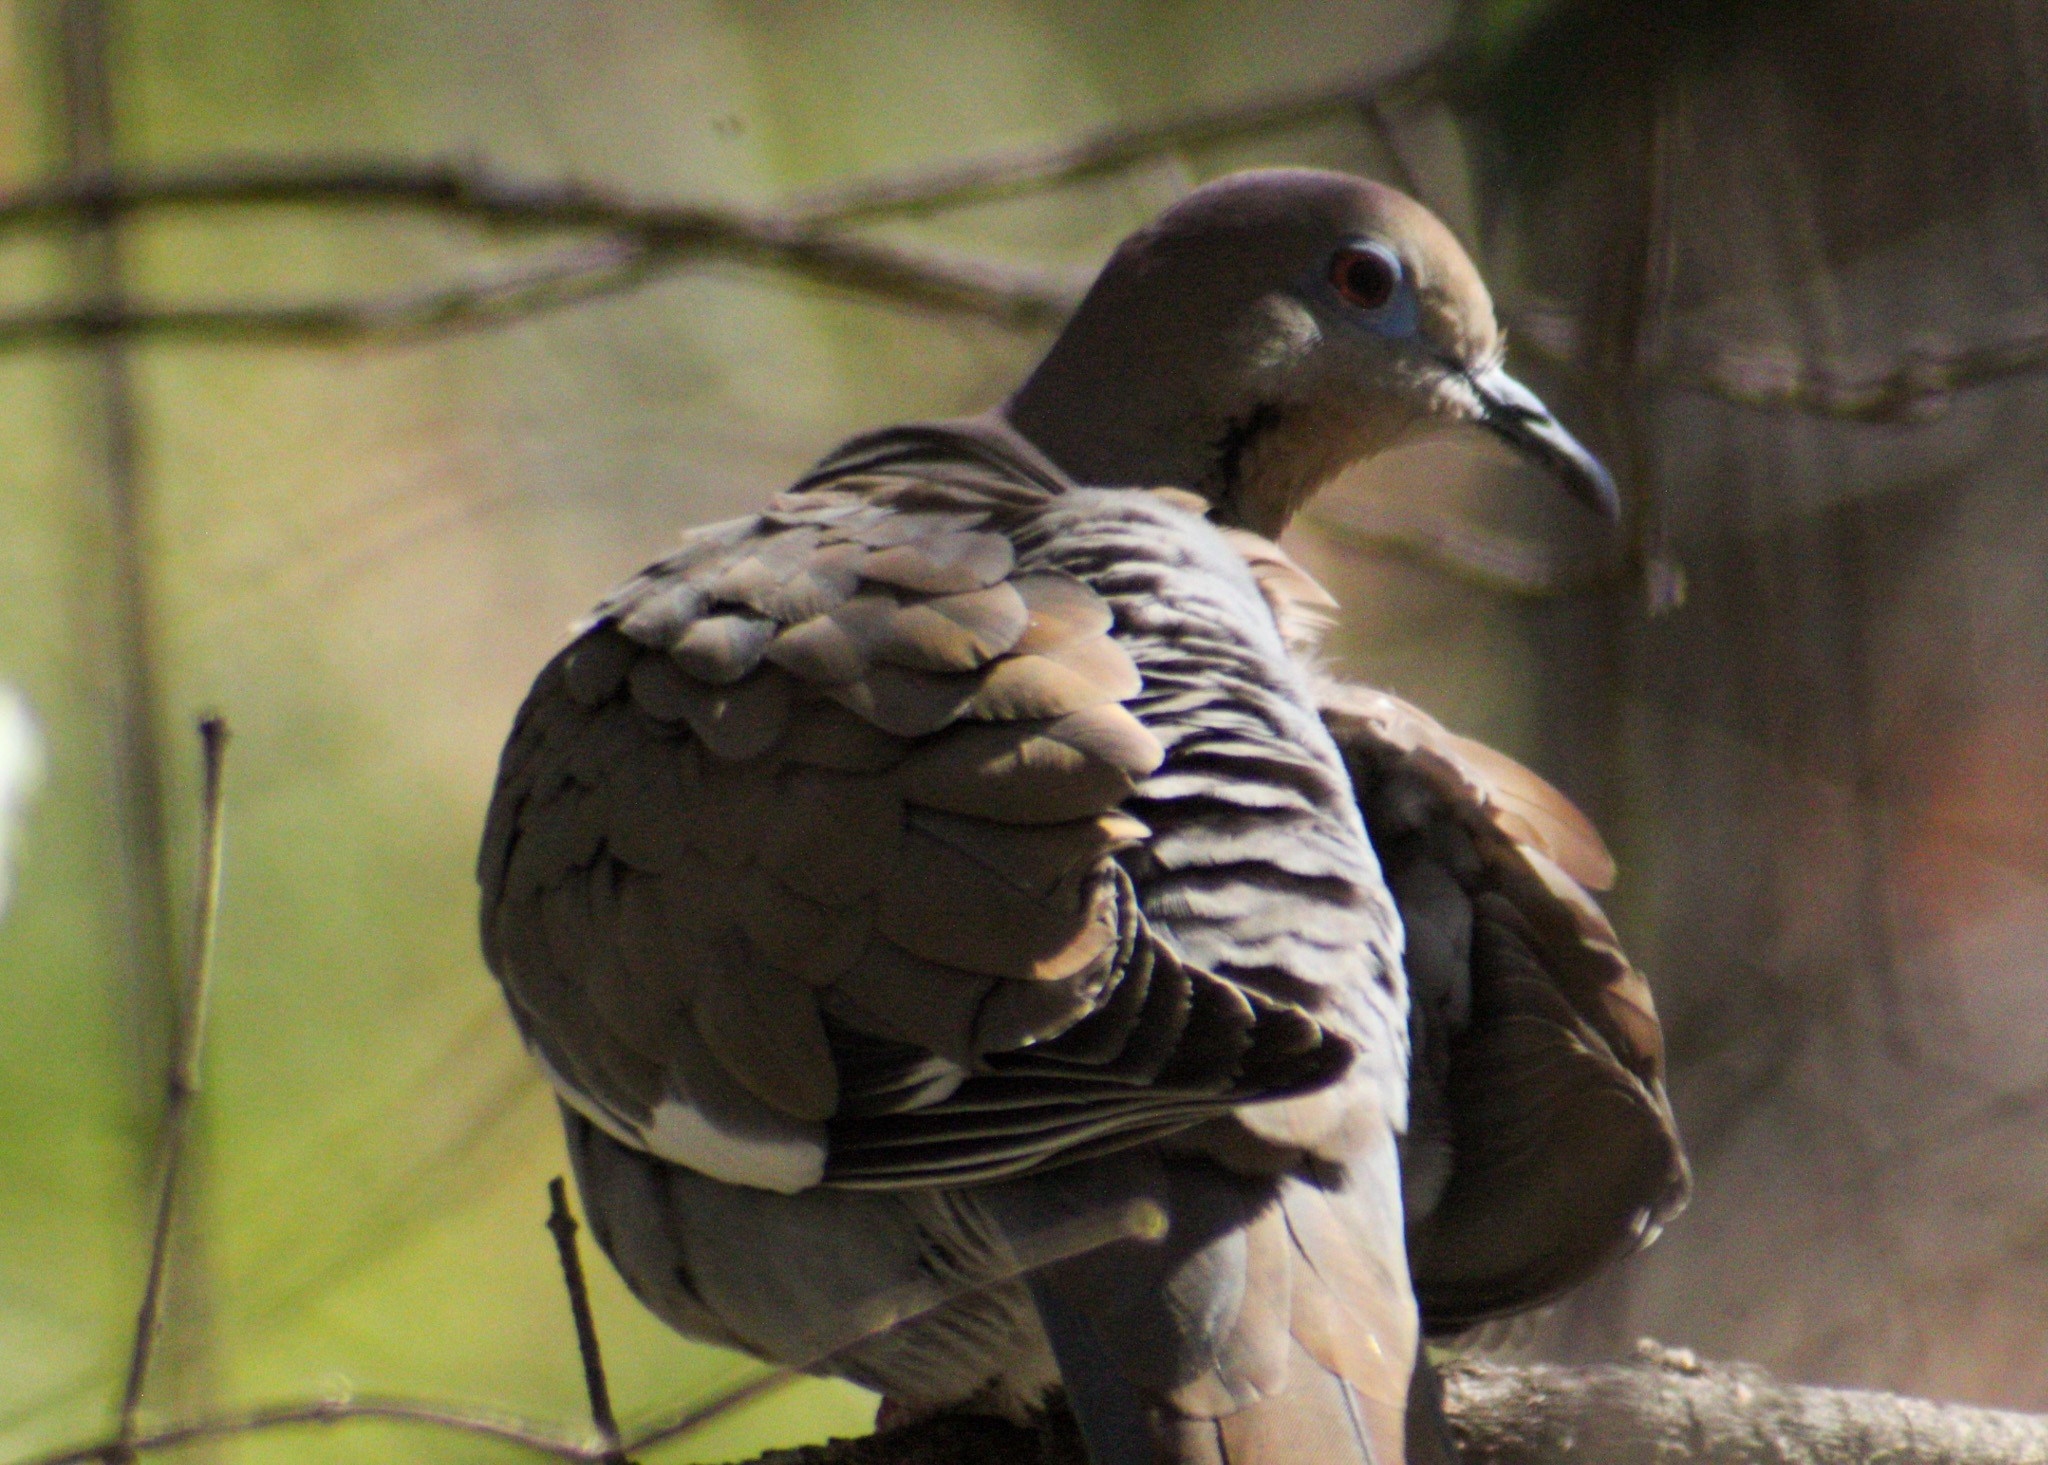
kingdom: Animalia
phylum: Chordata
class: Aves
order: Columbiformes
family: Columbidae
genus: Zenaida
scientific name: Zenaida asiatica
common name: White-winged dove
